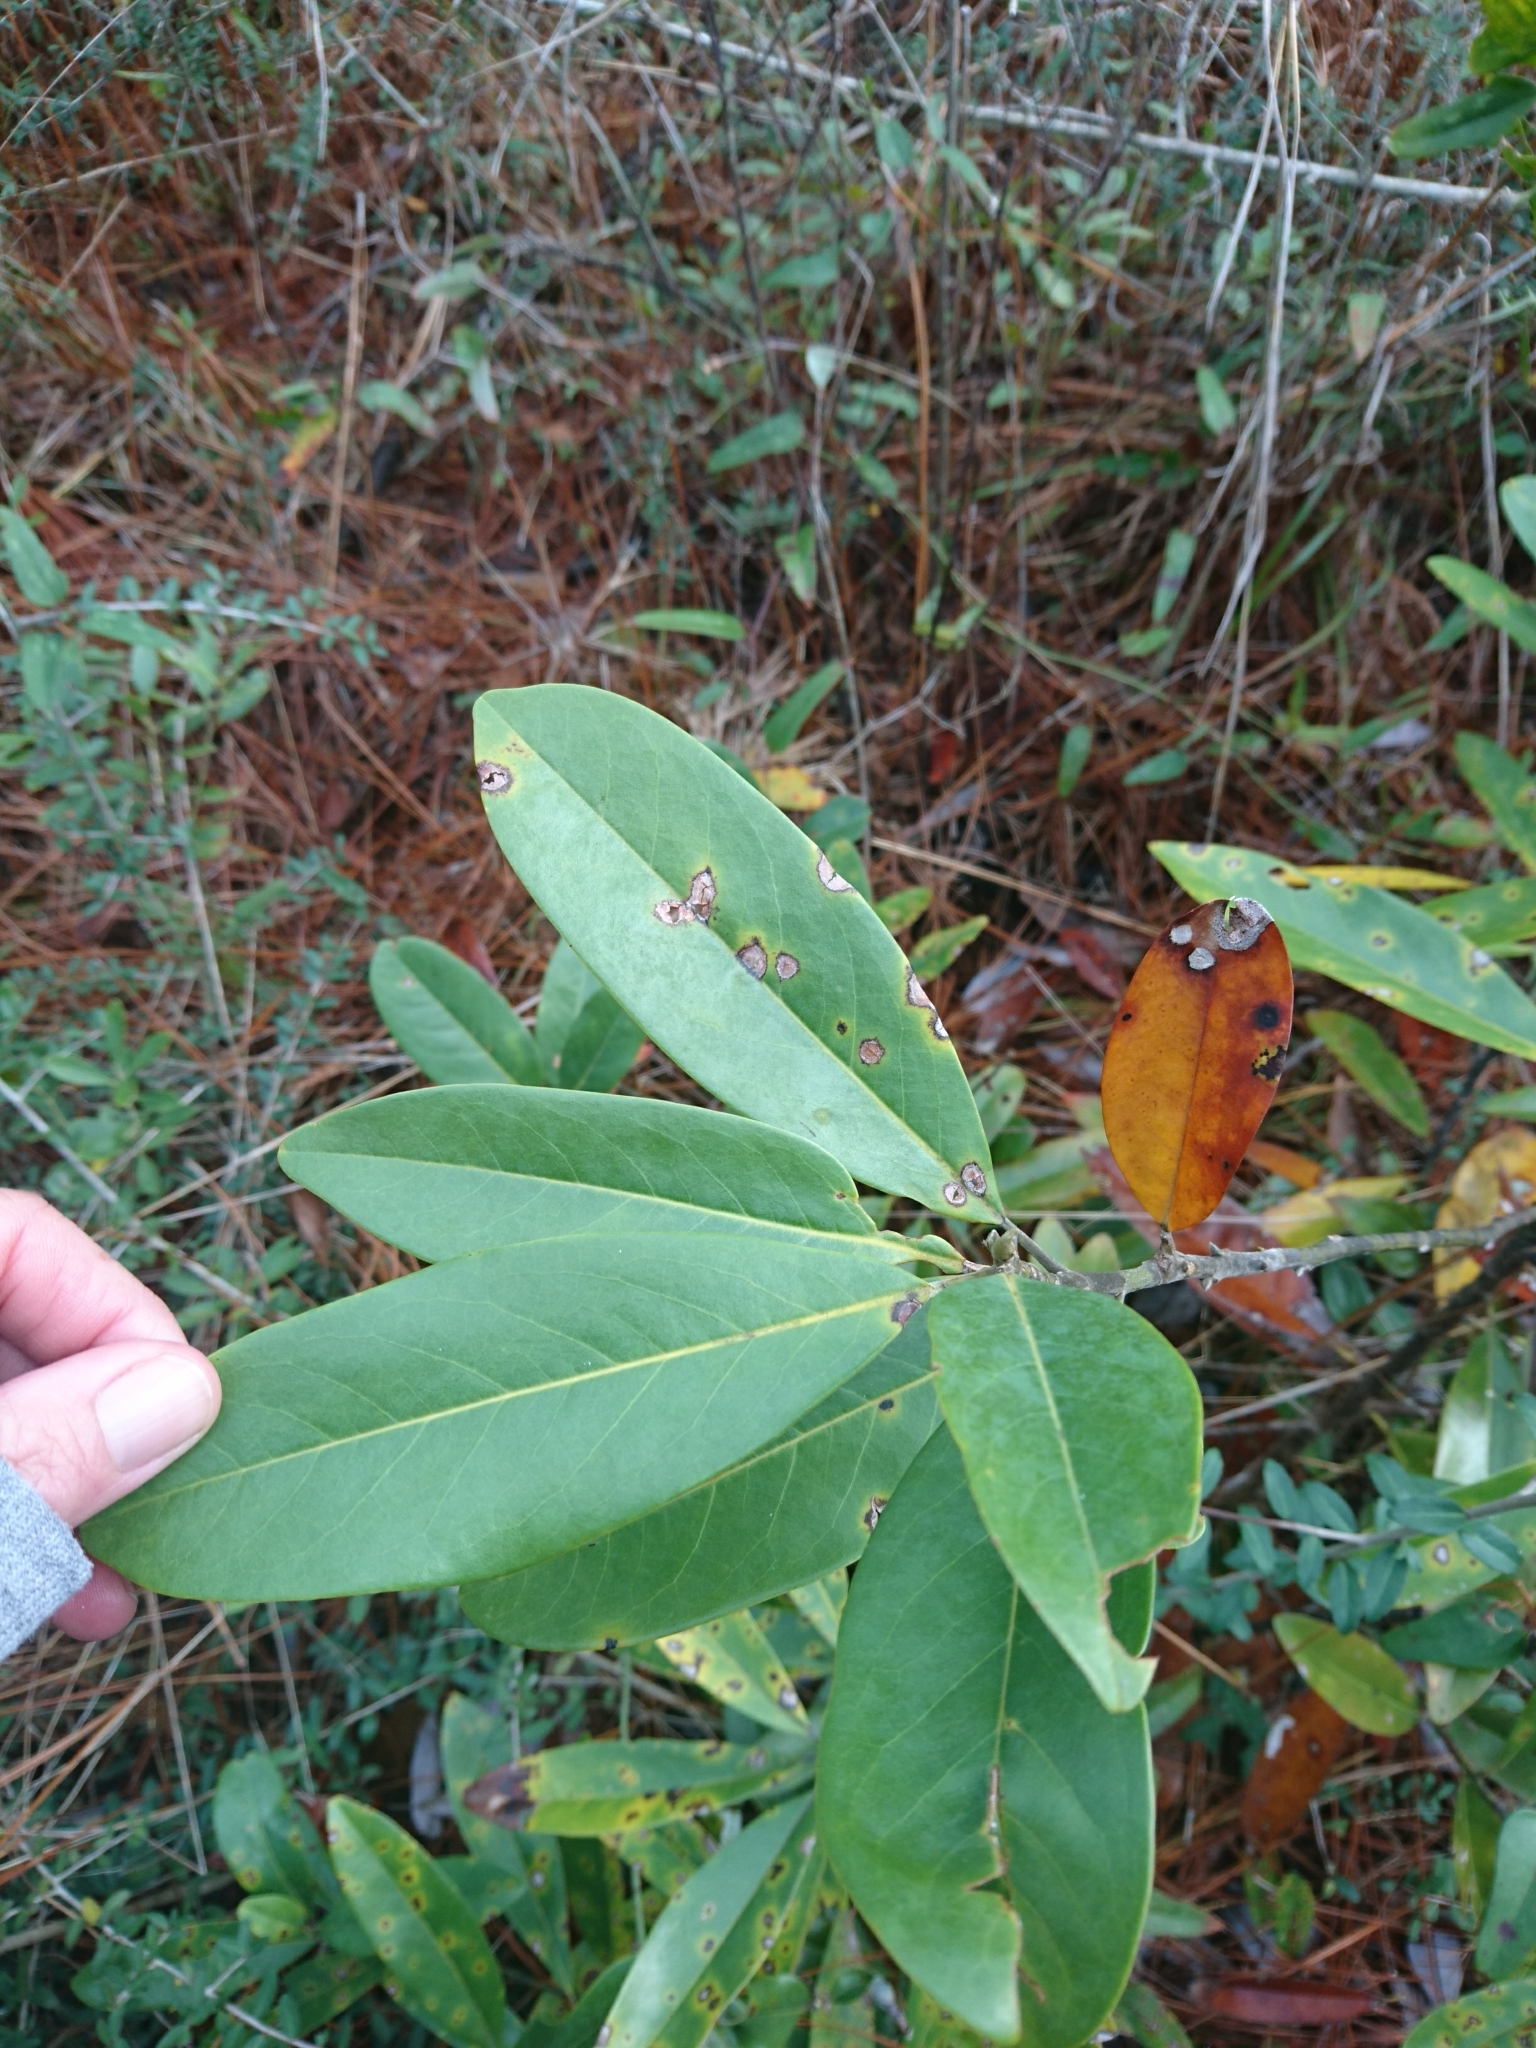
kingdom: Plantae
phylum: Tracheophyta
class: Magnoliopsida
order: Magnoliales
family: Magnoliaceae
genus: Magnolia
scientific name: Magnolia virginiana
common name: Swamp bay
